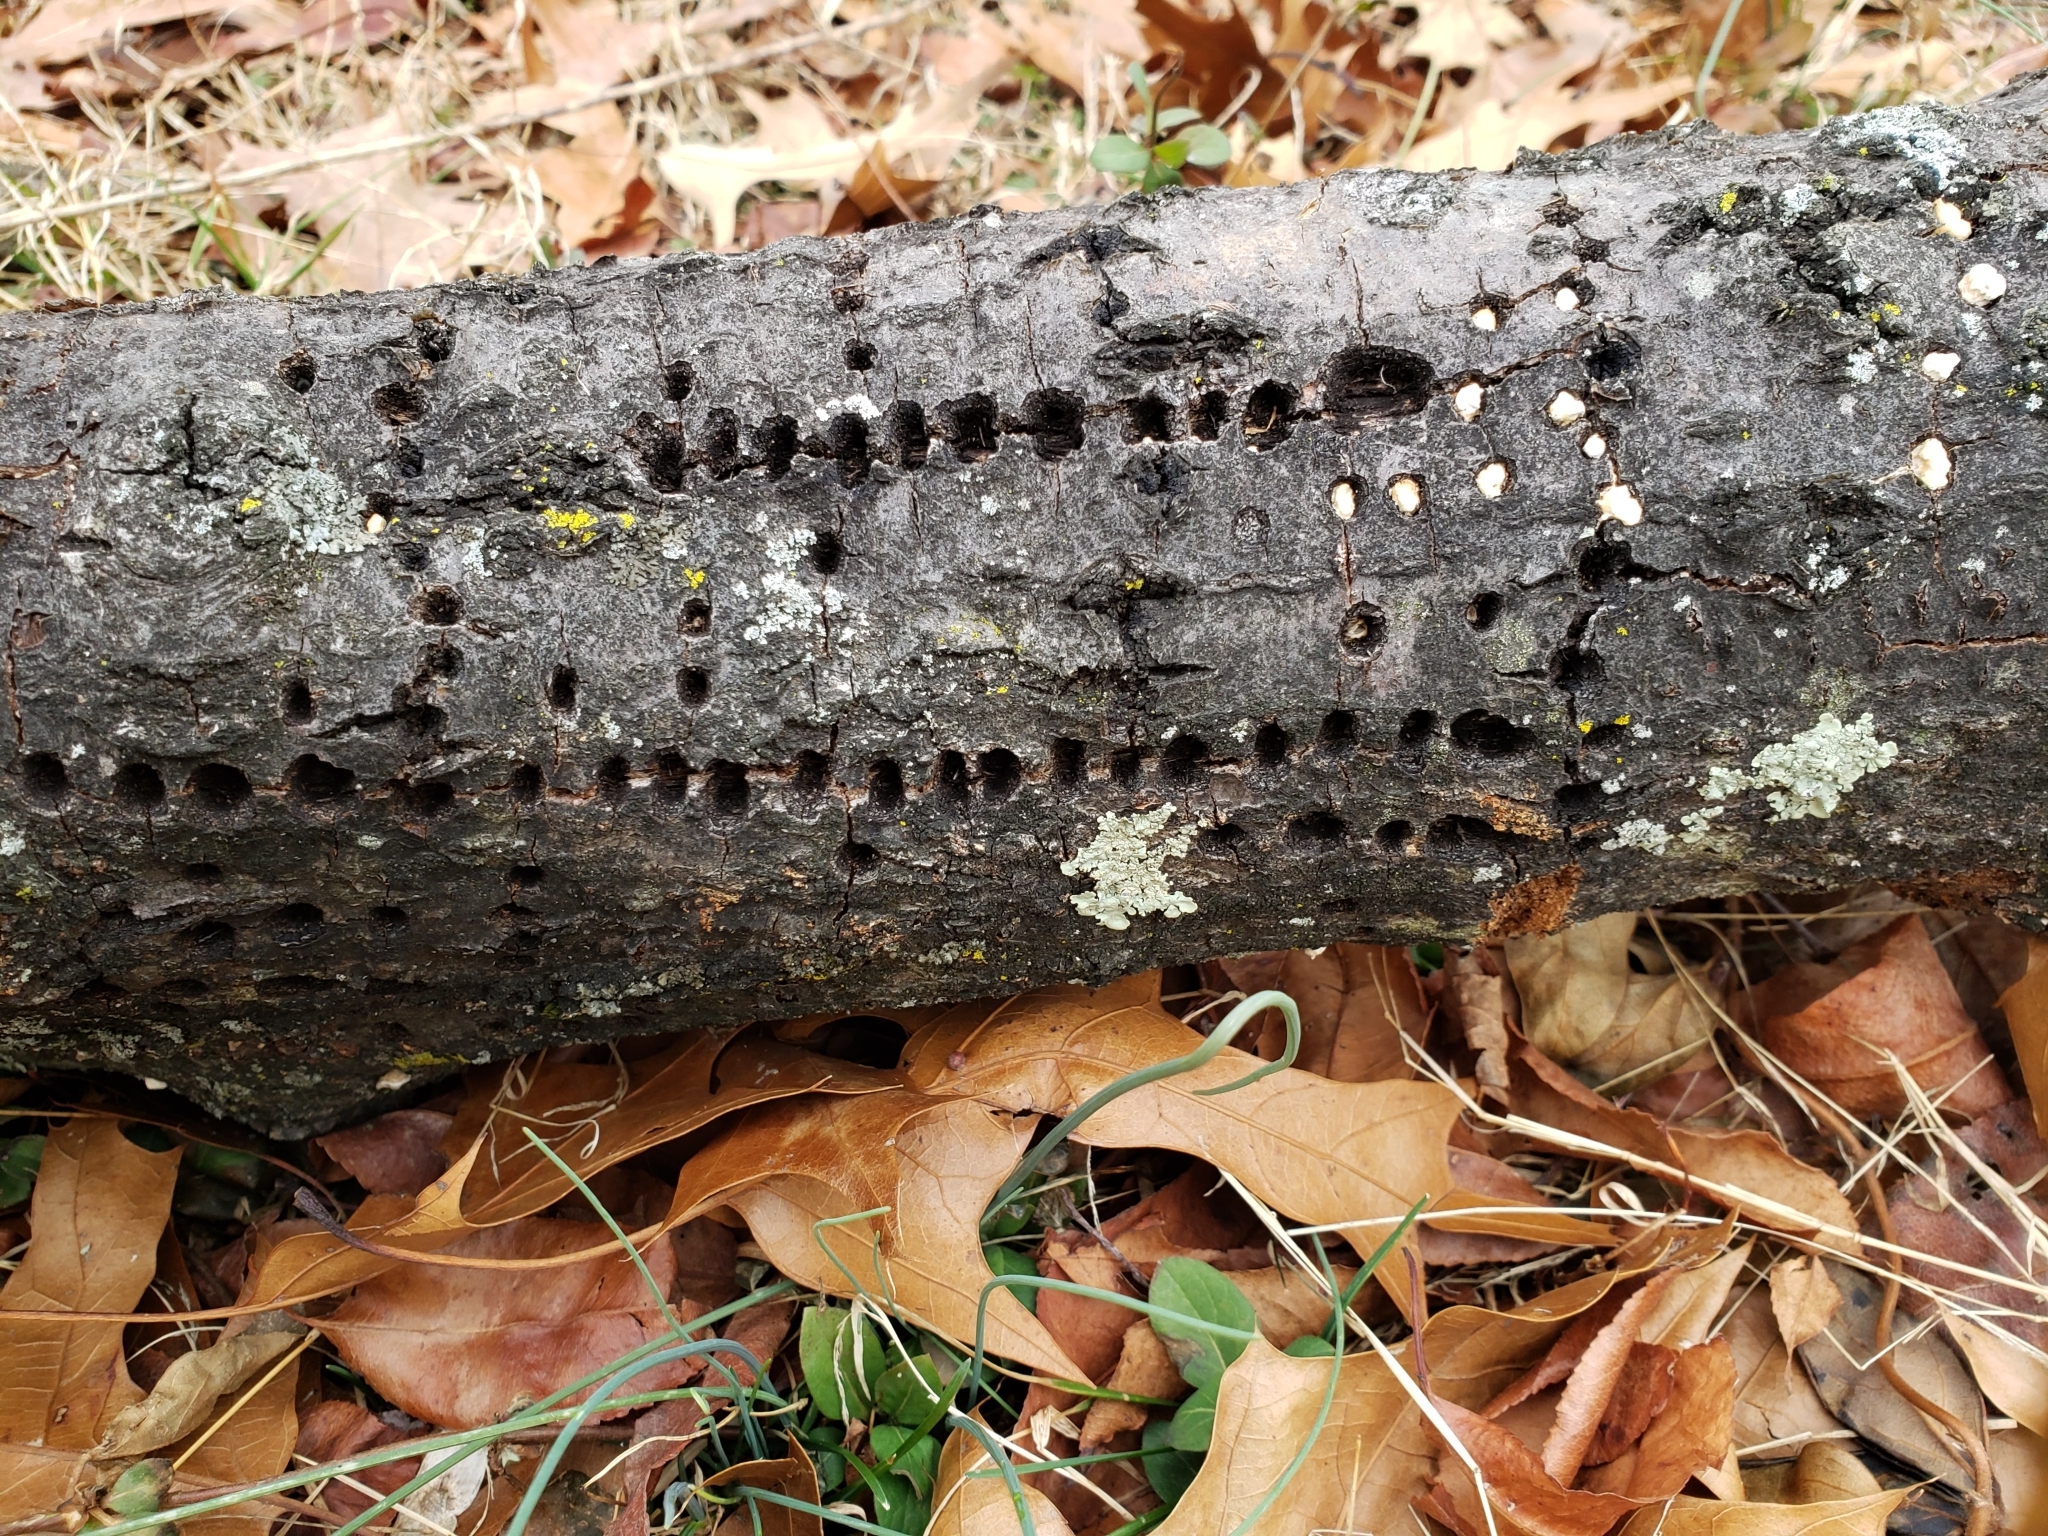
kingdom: Animalia
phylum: Chordata
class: Aves
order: Piciformes
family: Picidae
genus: Sphyrapicus
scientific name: Sphyrapicus varius
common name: Yellow-bellied sapsucker
